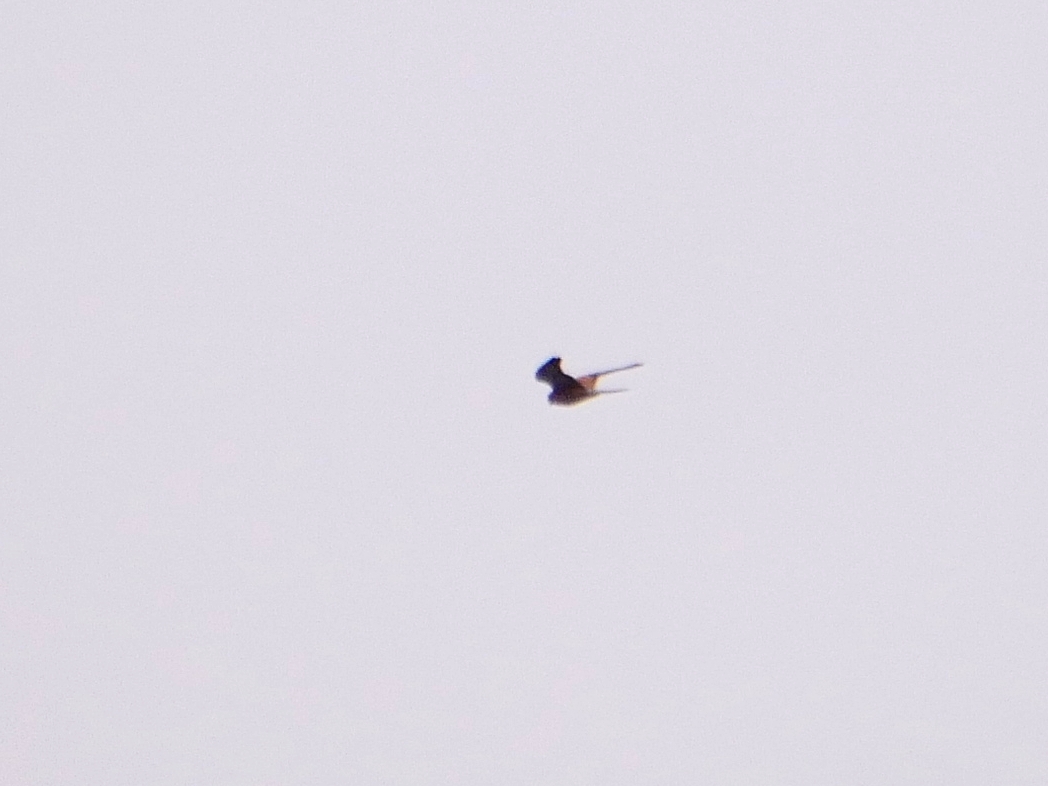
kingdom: Animalia
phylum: Chordata
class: Aves
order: Falconiformes
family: Falconidae
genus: Falco
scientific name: Falco tinnunculus
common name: Common kestrel
